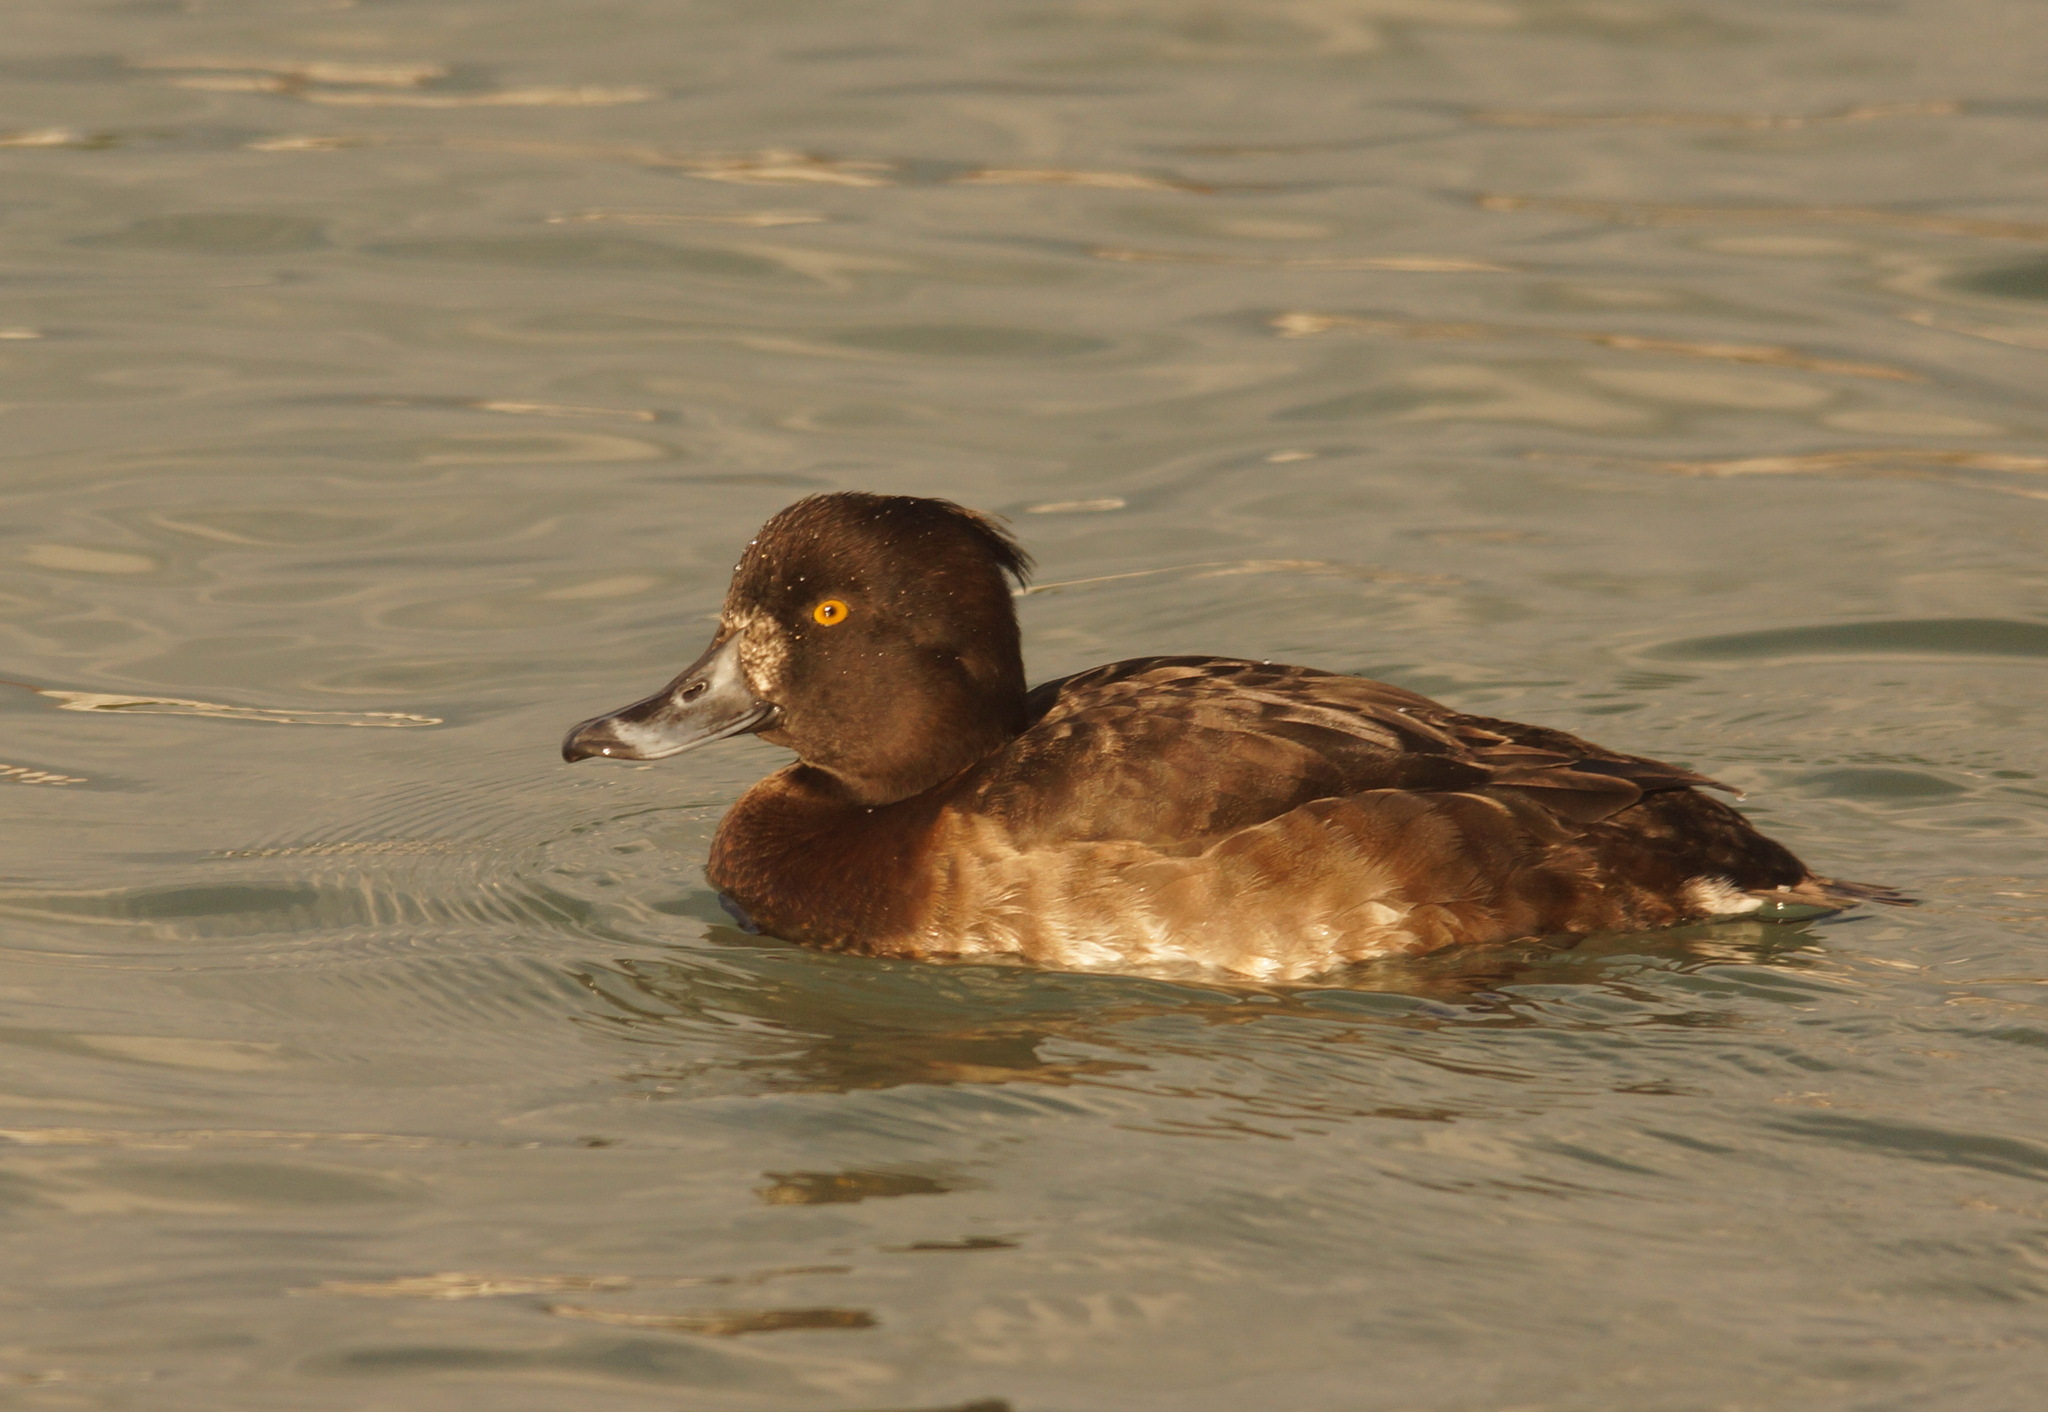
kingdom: Animalia
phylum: Chordata
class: Aves
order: Anseriformes
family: Anatidae
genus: Aythya
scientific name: Aythya fuligula
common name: Tufted duck
